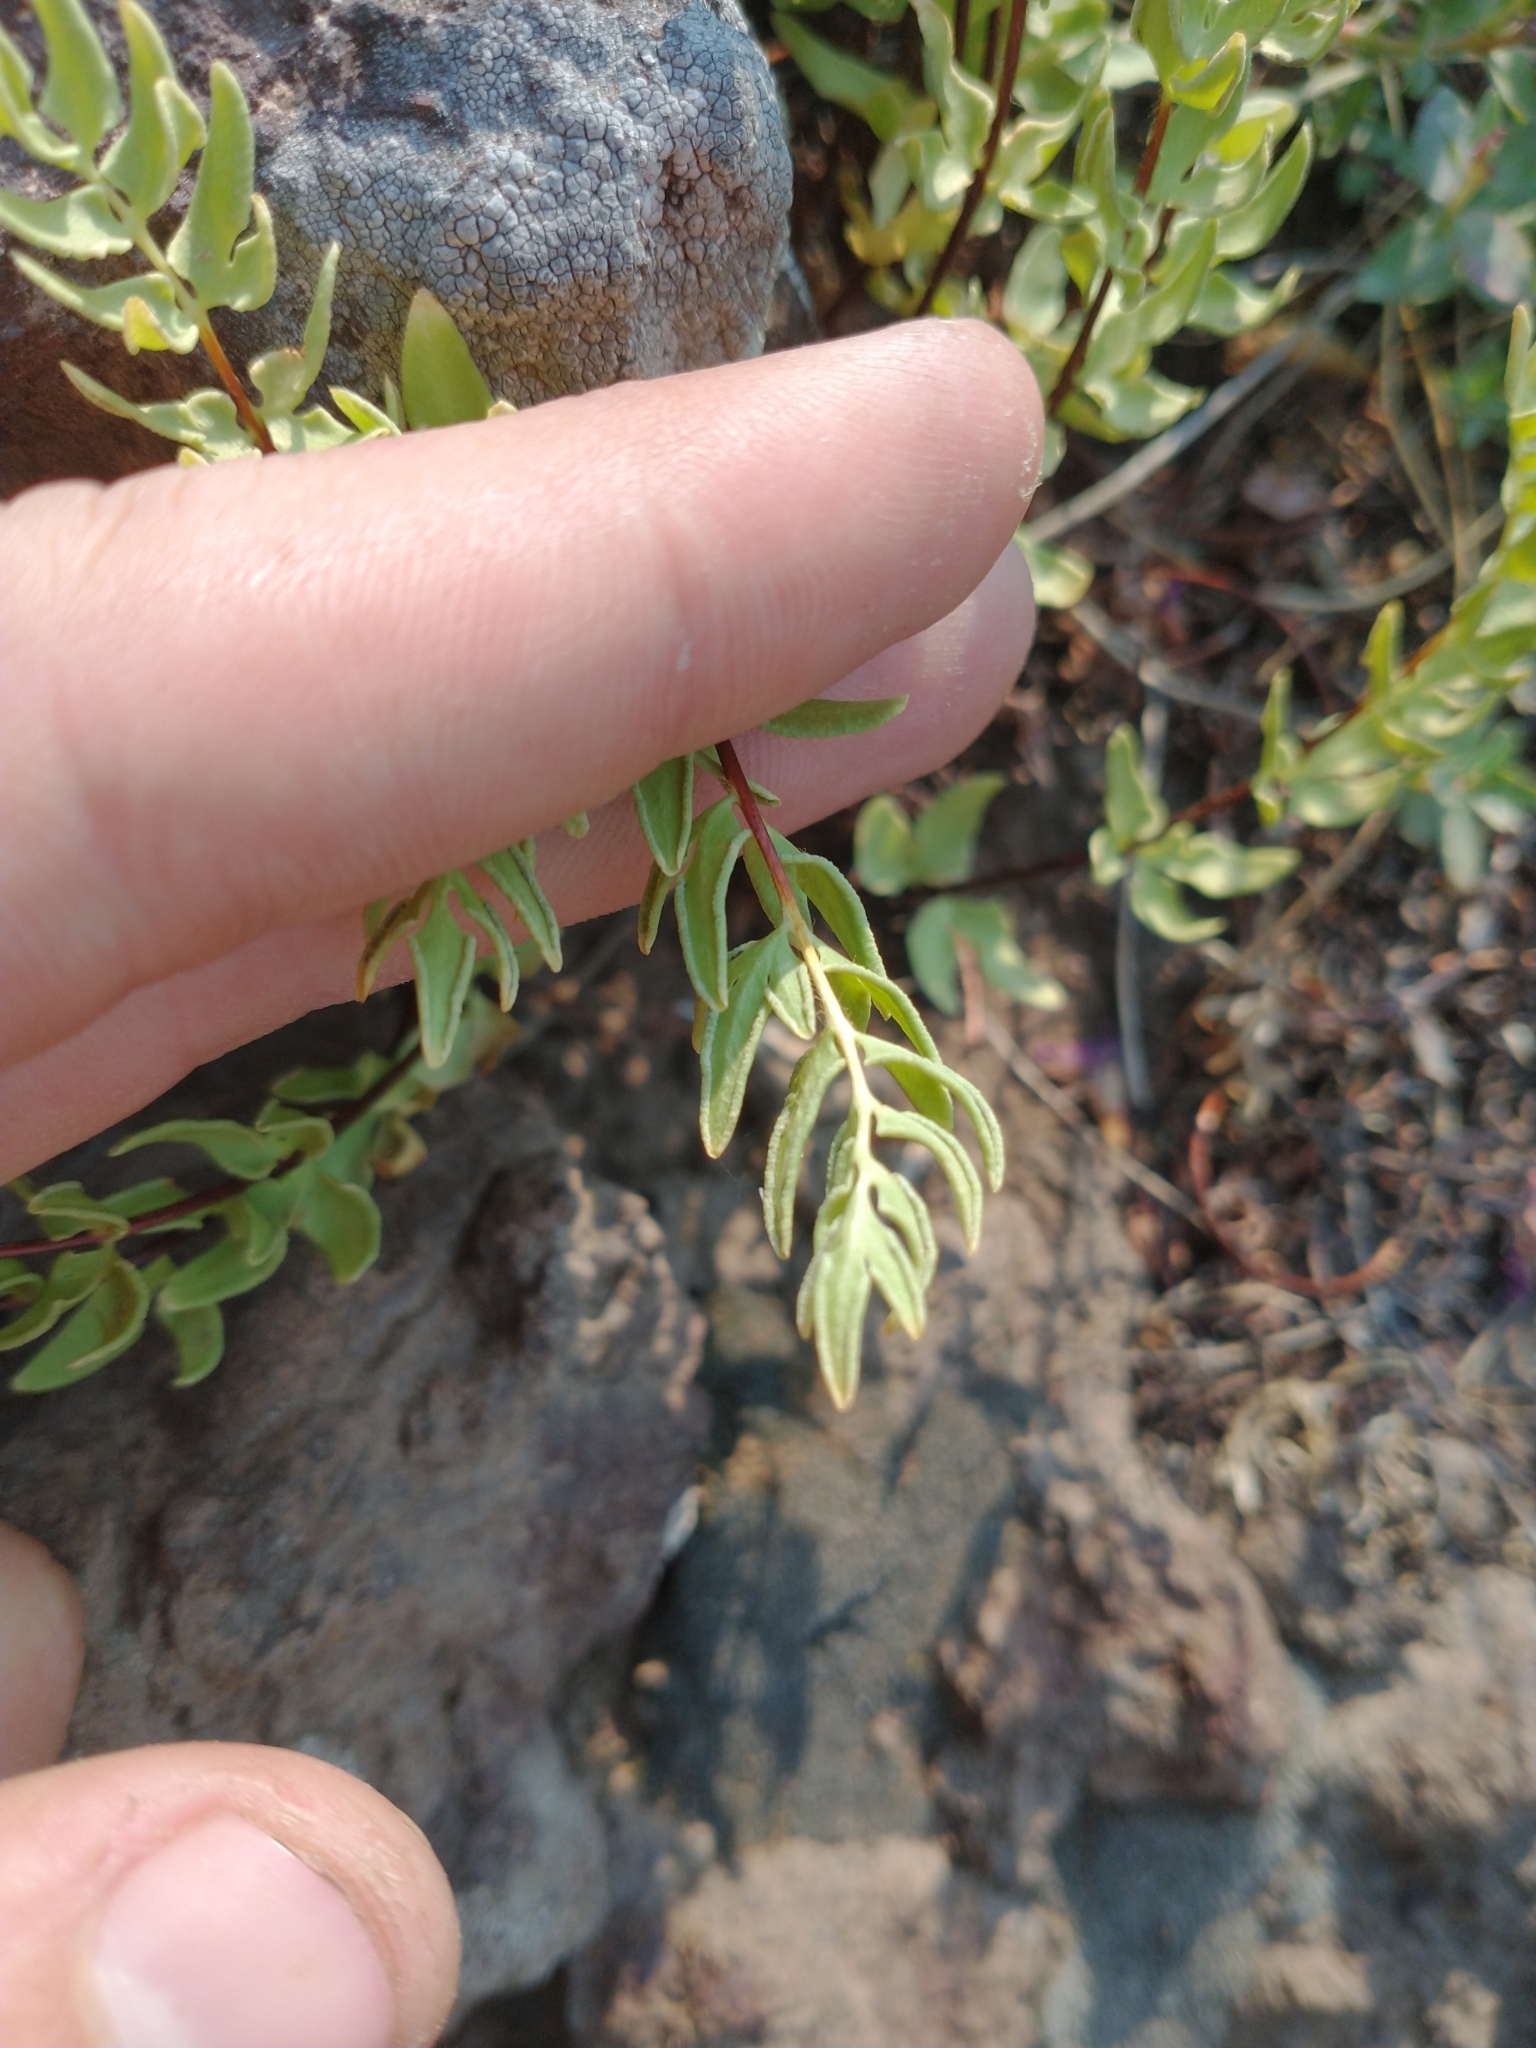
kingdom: Plantae
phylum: Tracheophyta
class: Polypodiopsida
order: Polypodiales
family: Pteridaceae
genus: Pellaea
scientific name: Pellaea breweri
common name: Brewer's cliffbrake
